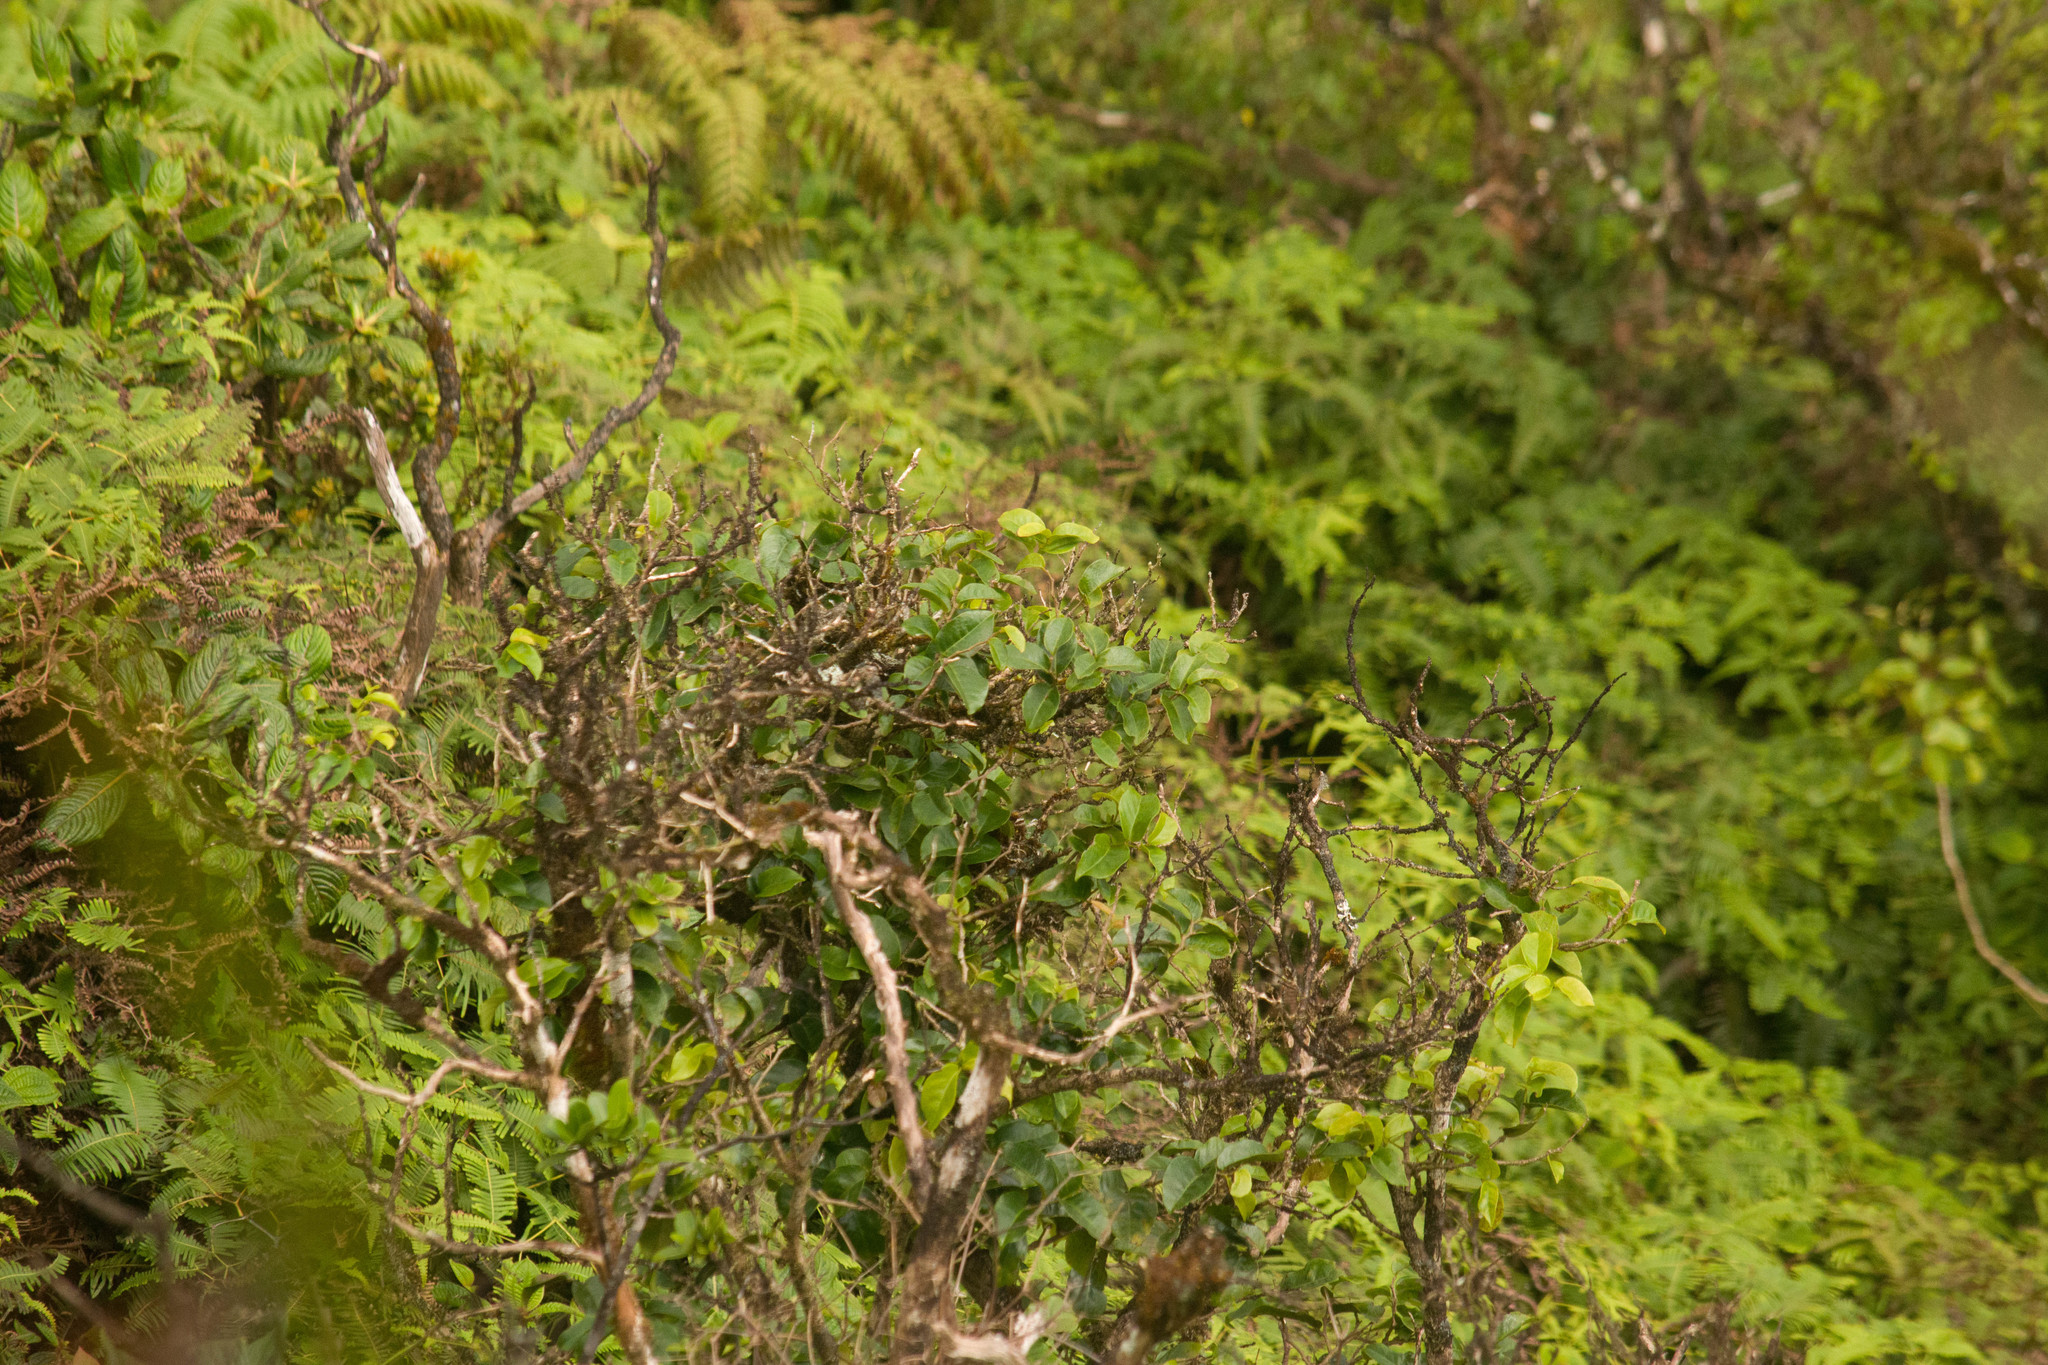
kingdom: Plantae
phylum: Tracheophyta
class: Magnoliopsida
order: Malpighiales
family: Phyllanthaceae
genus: Antidesma
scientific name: Antidesma platyphyllum
